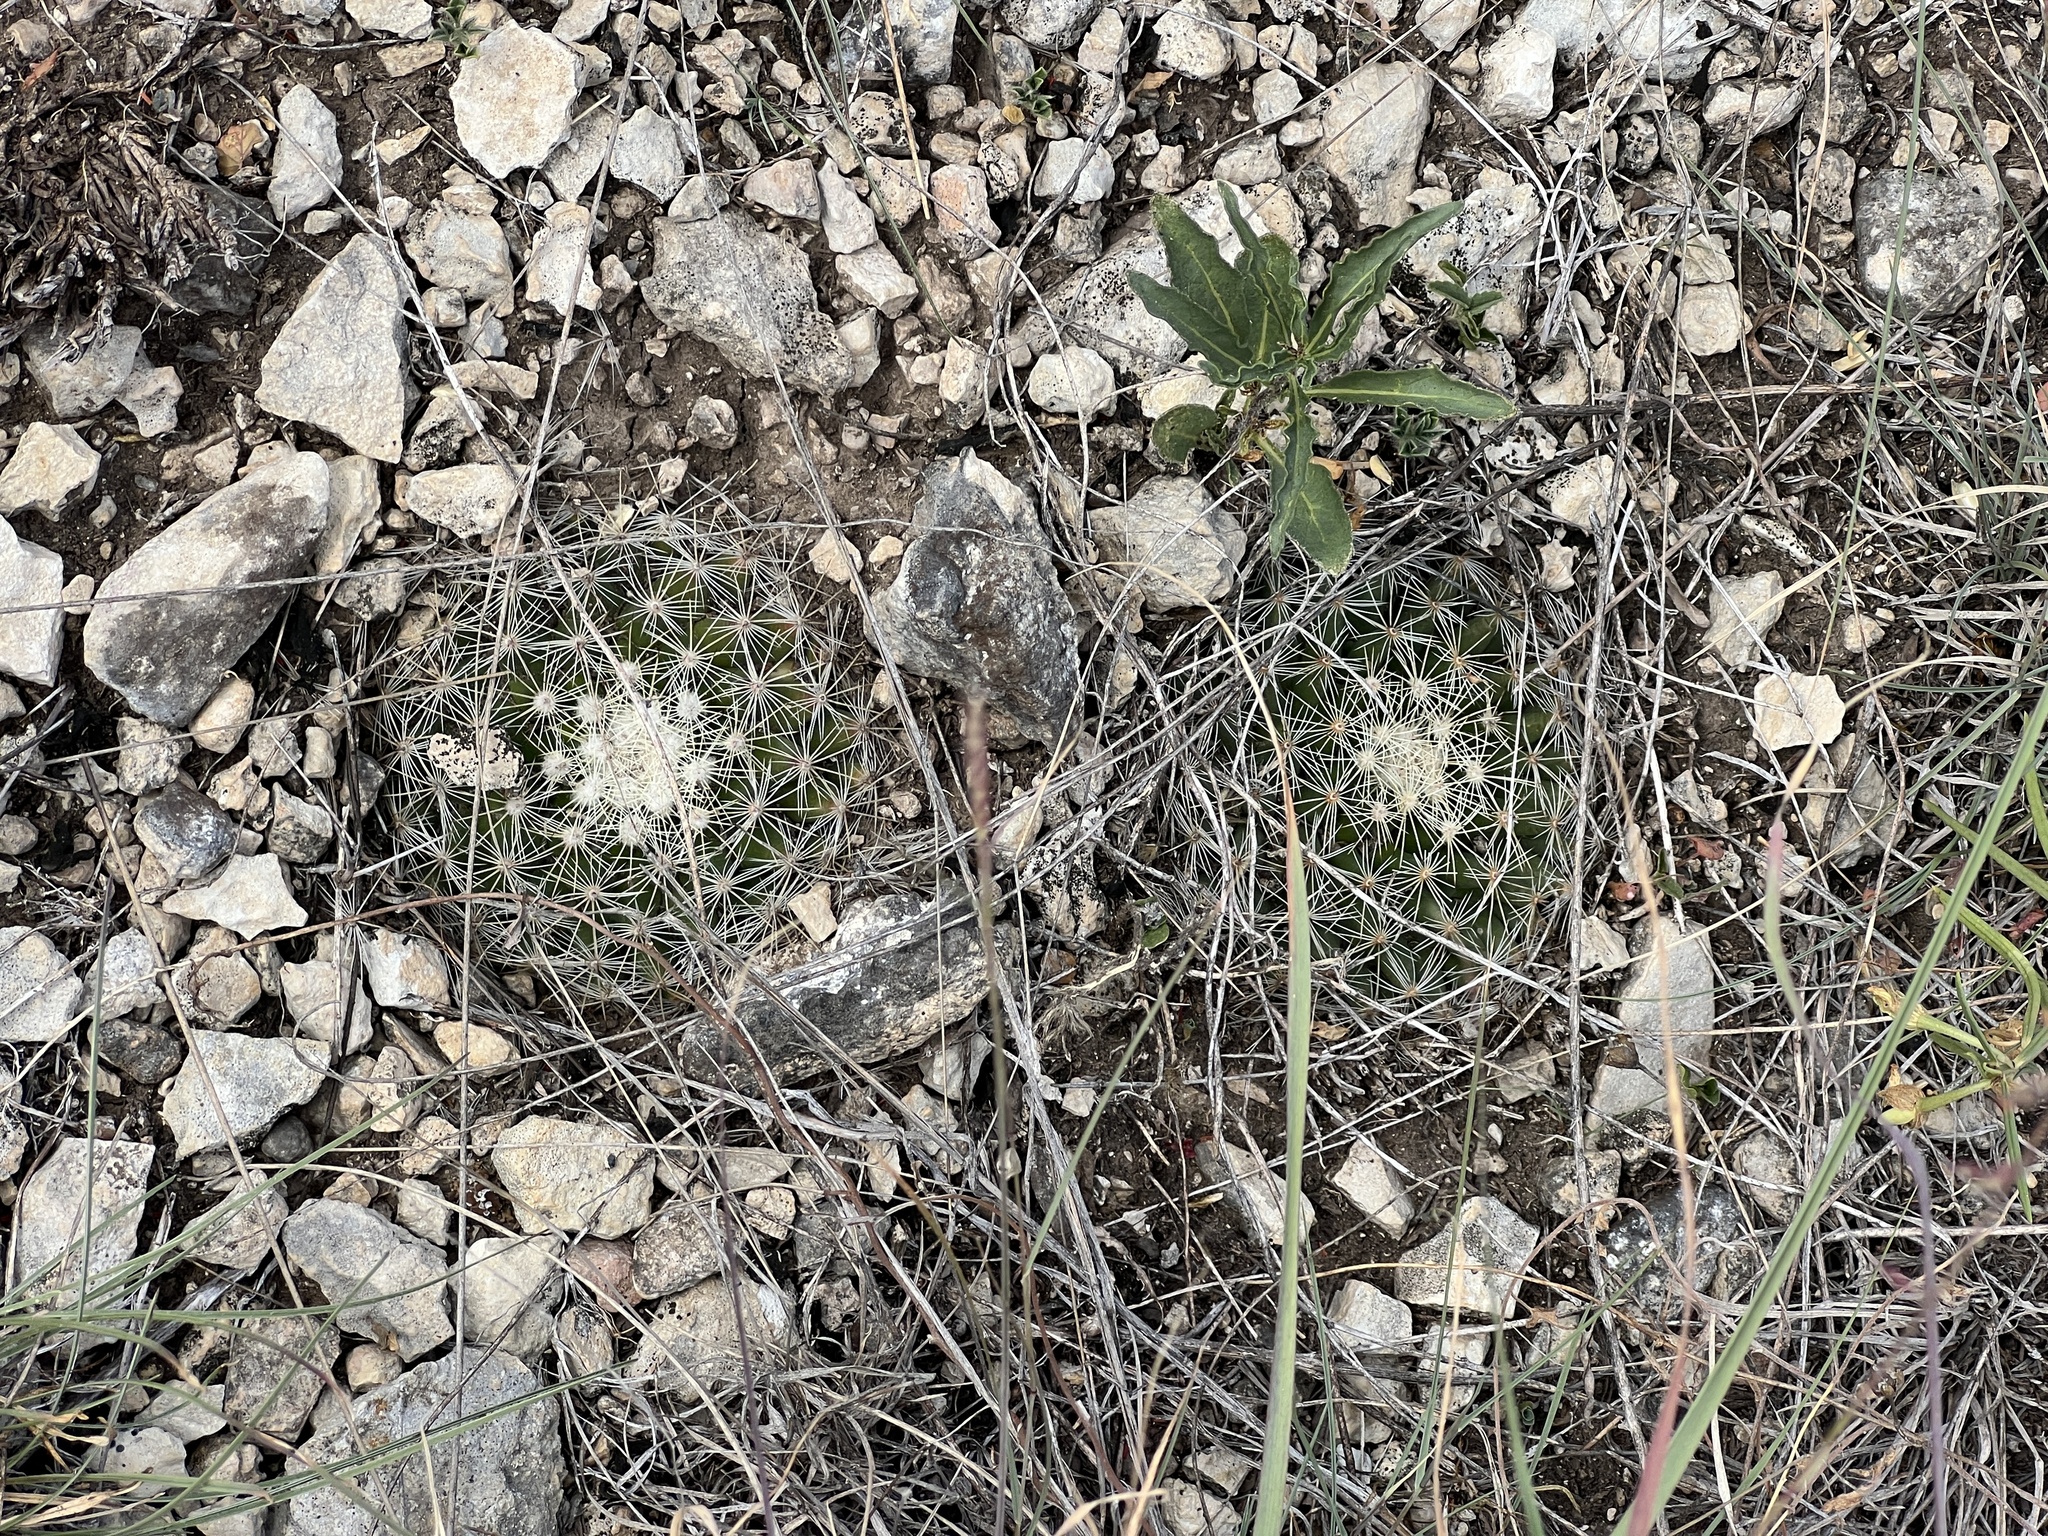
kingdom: Plantae
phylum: Tracheophyta
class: Magnoliopsida
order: Caryophyllales
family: Cactaceae
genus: Mammillaria
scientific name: Mammillaria heyderi
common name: Little nipple cactus
